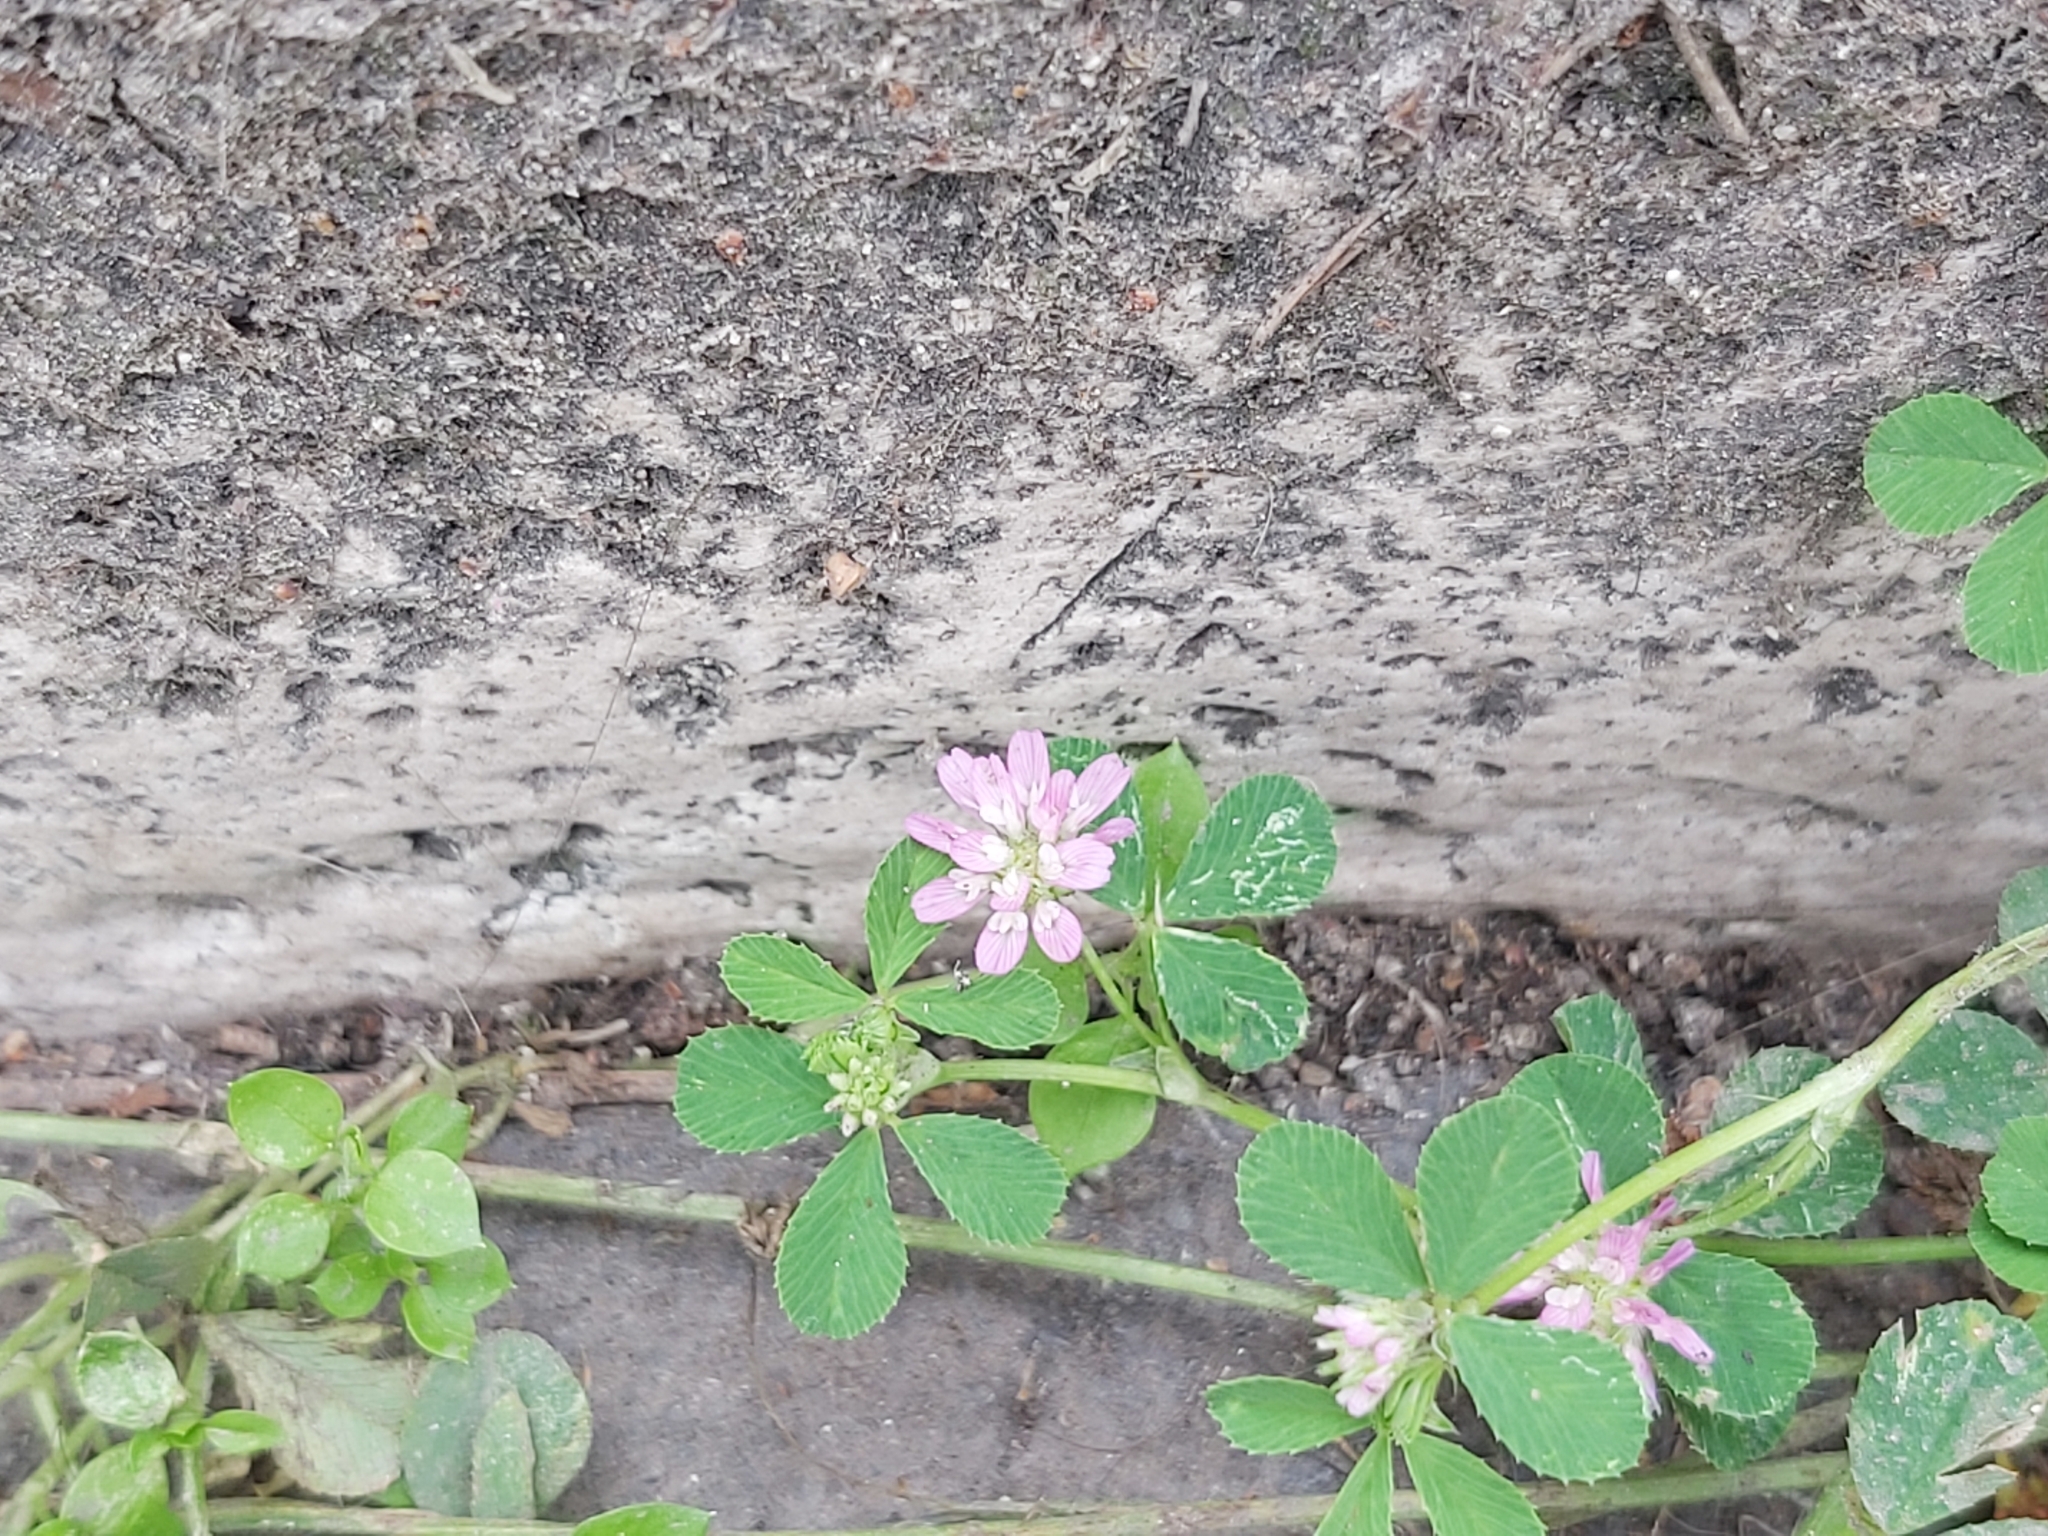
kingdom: Plantae
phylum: Tracheophyta
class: Magnoliopsida
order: Fabales
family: Fabaceae
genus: Trifolium
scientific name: Trifolium resupinatum
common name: Reversed clover
